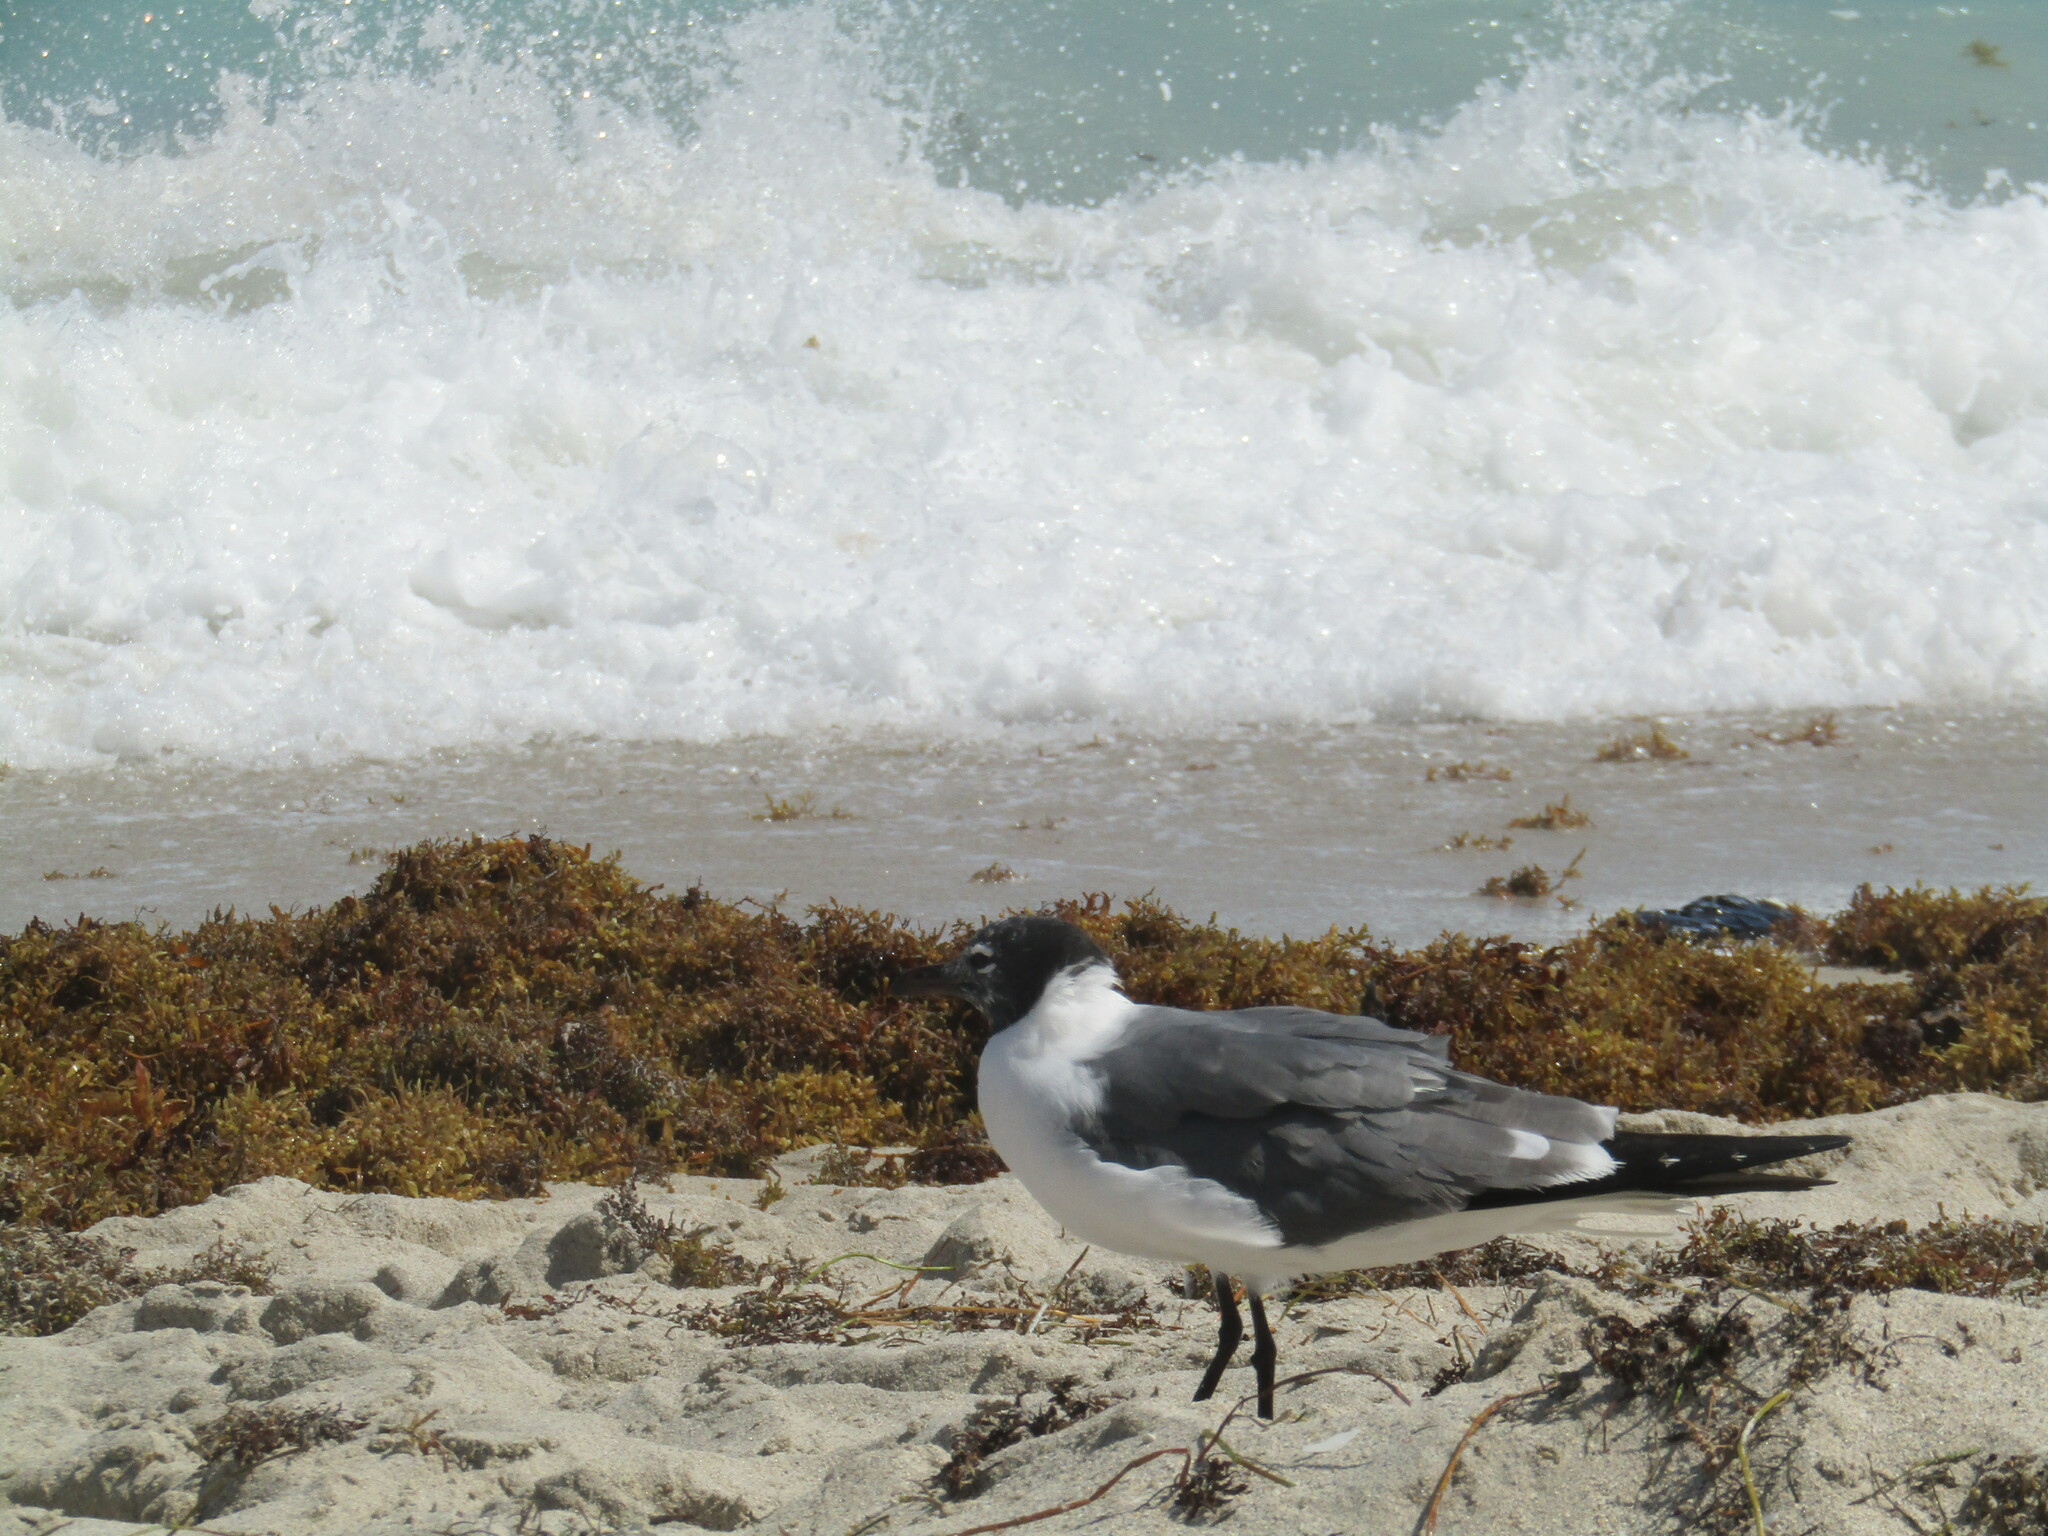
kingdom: Animalia
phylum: Chordata
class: Aves
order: Charadriiformes
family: Laridae
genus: Leucophaeus
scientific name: Leucophaeus atricilla
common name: Laughing gull
